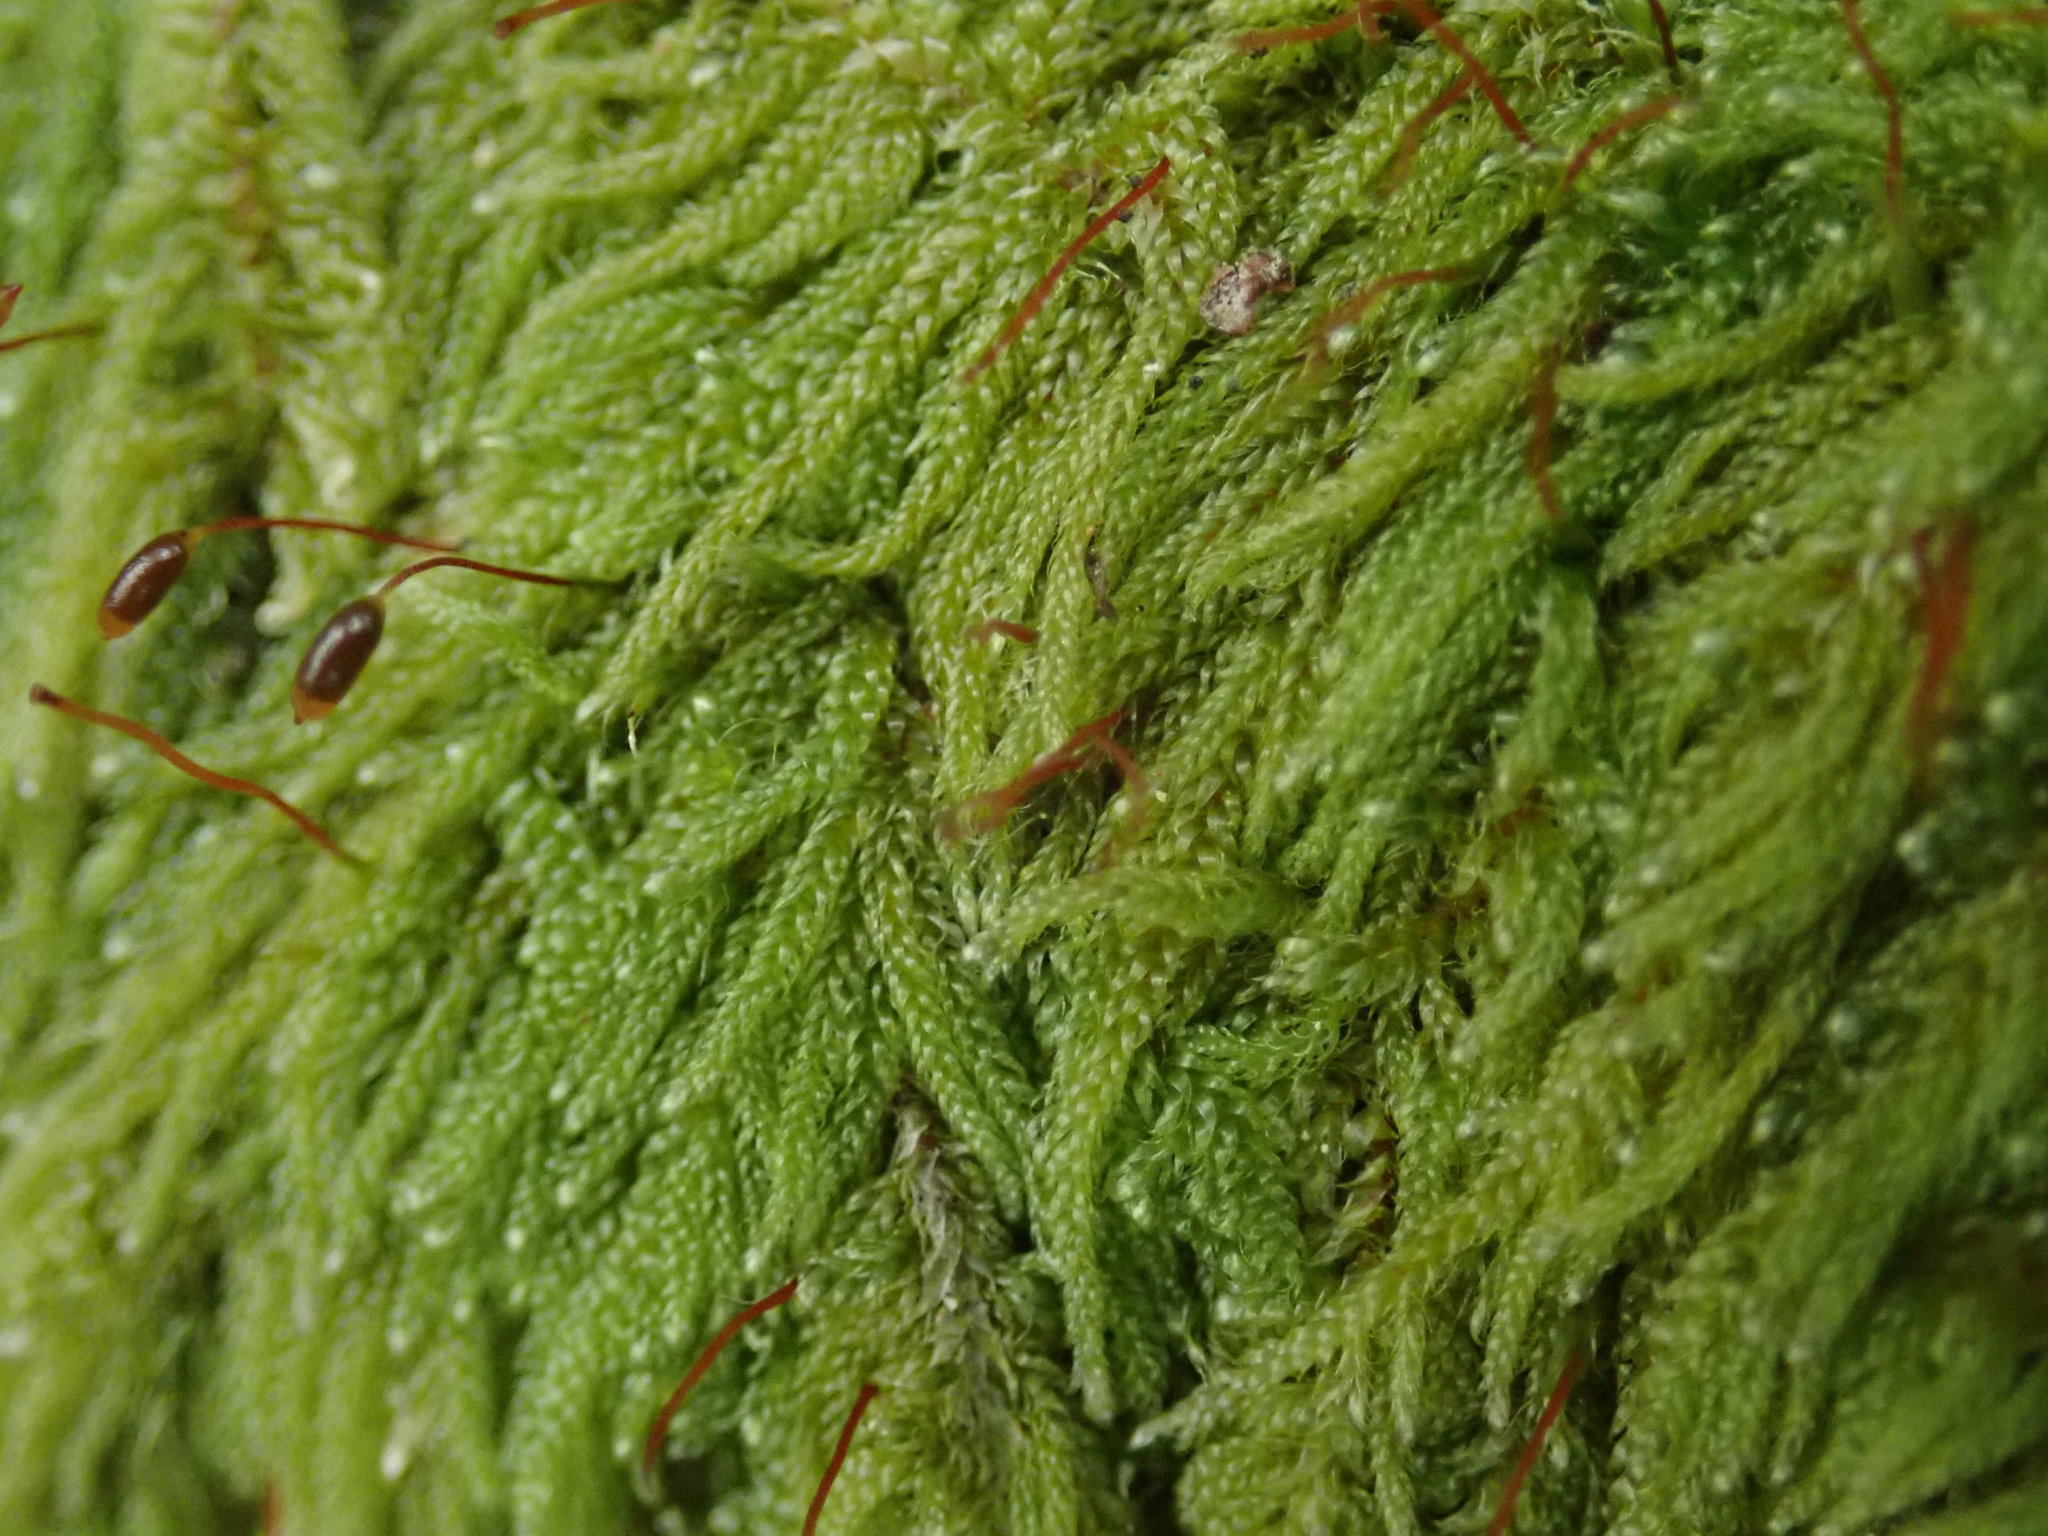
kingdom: Plantae
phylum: Bryophyta
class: Bryopsida
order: Hypnales
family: Pylaisiadelphaceae
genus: Trochophyllohypnum
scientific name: Trochophyllohypnum circinale
